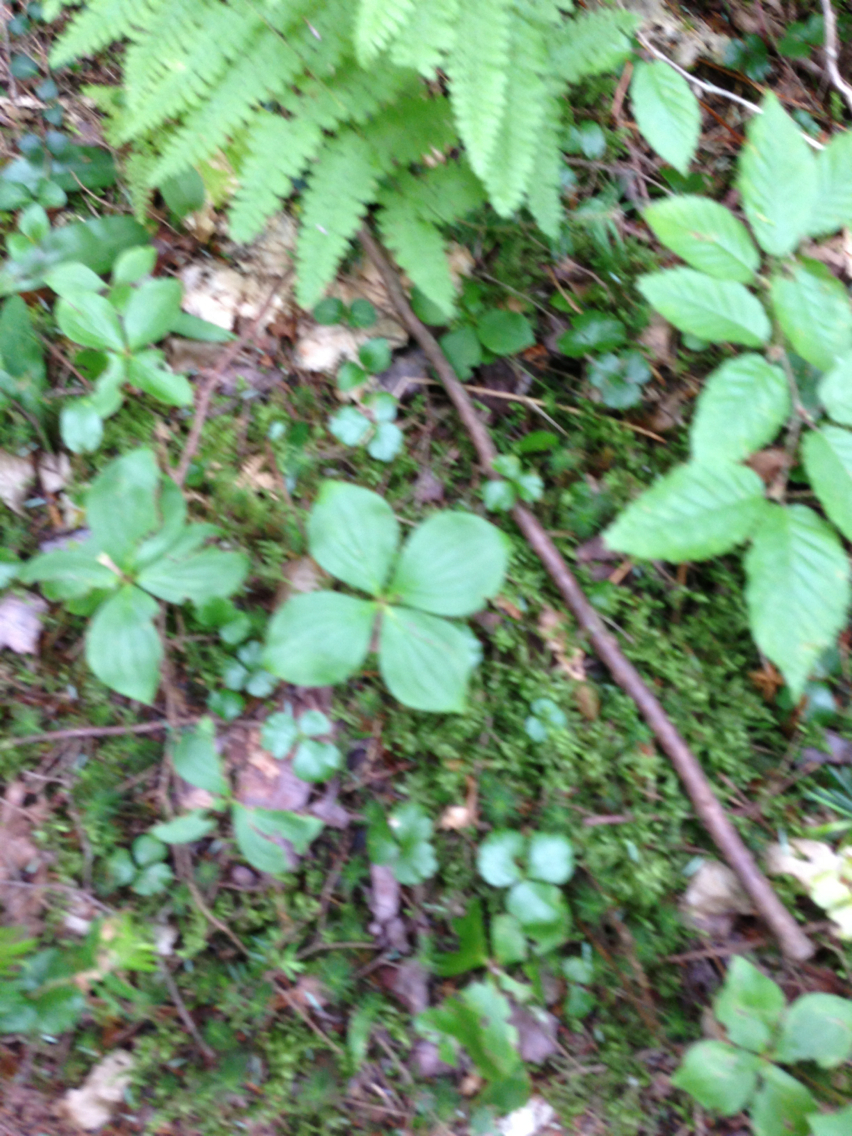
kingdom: Plantae
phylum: Tracheophyta
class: Magnoliopsida
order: Cornales
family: Cornaceae
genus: Cornus
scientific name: Cornus canadensis
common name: Creeping dogwood
